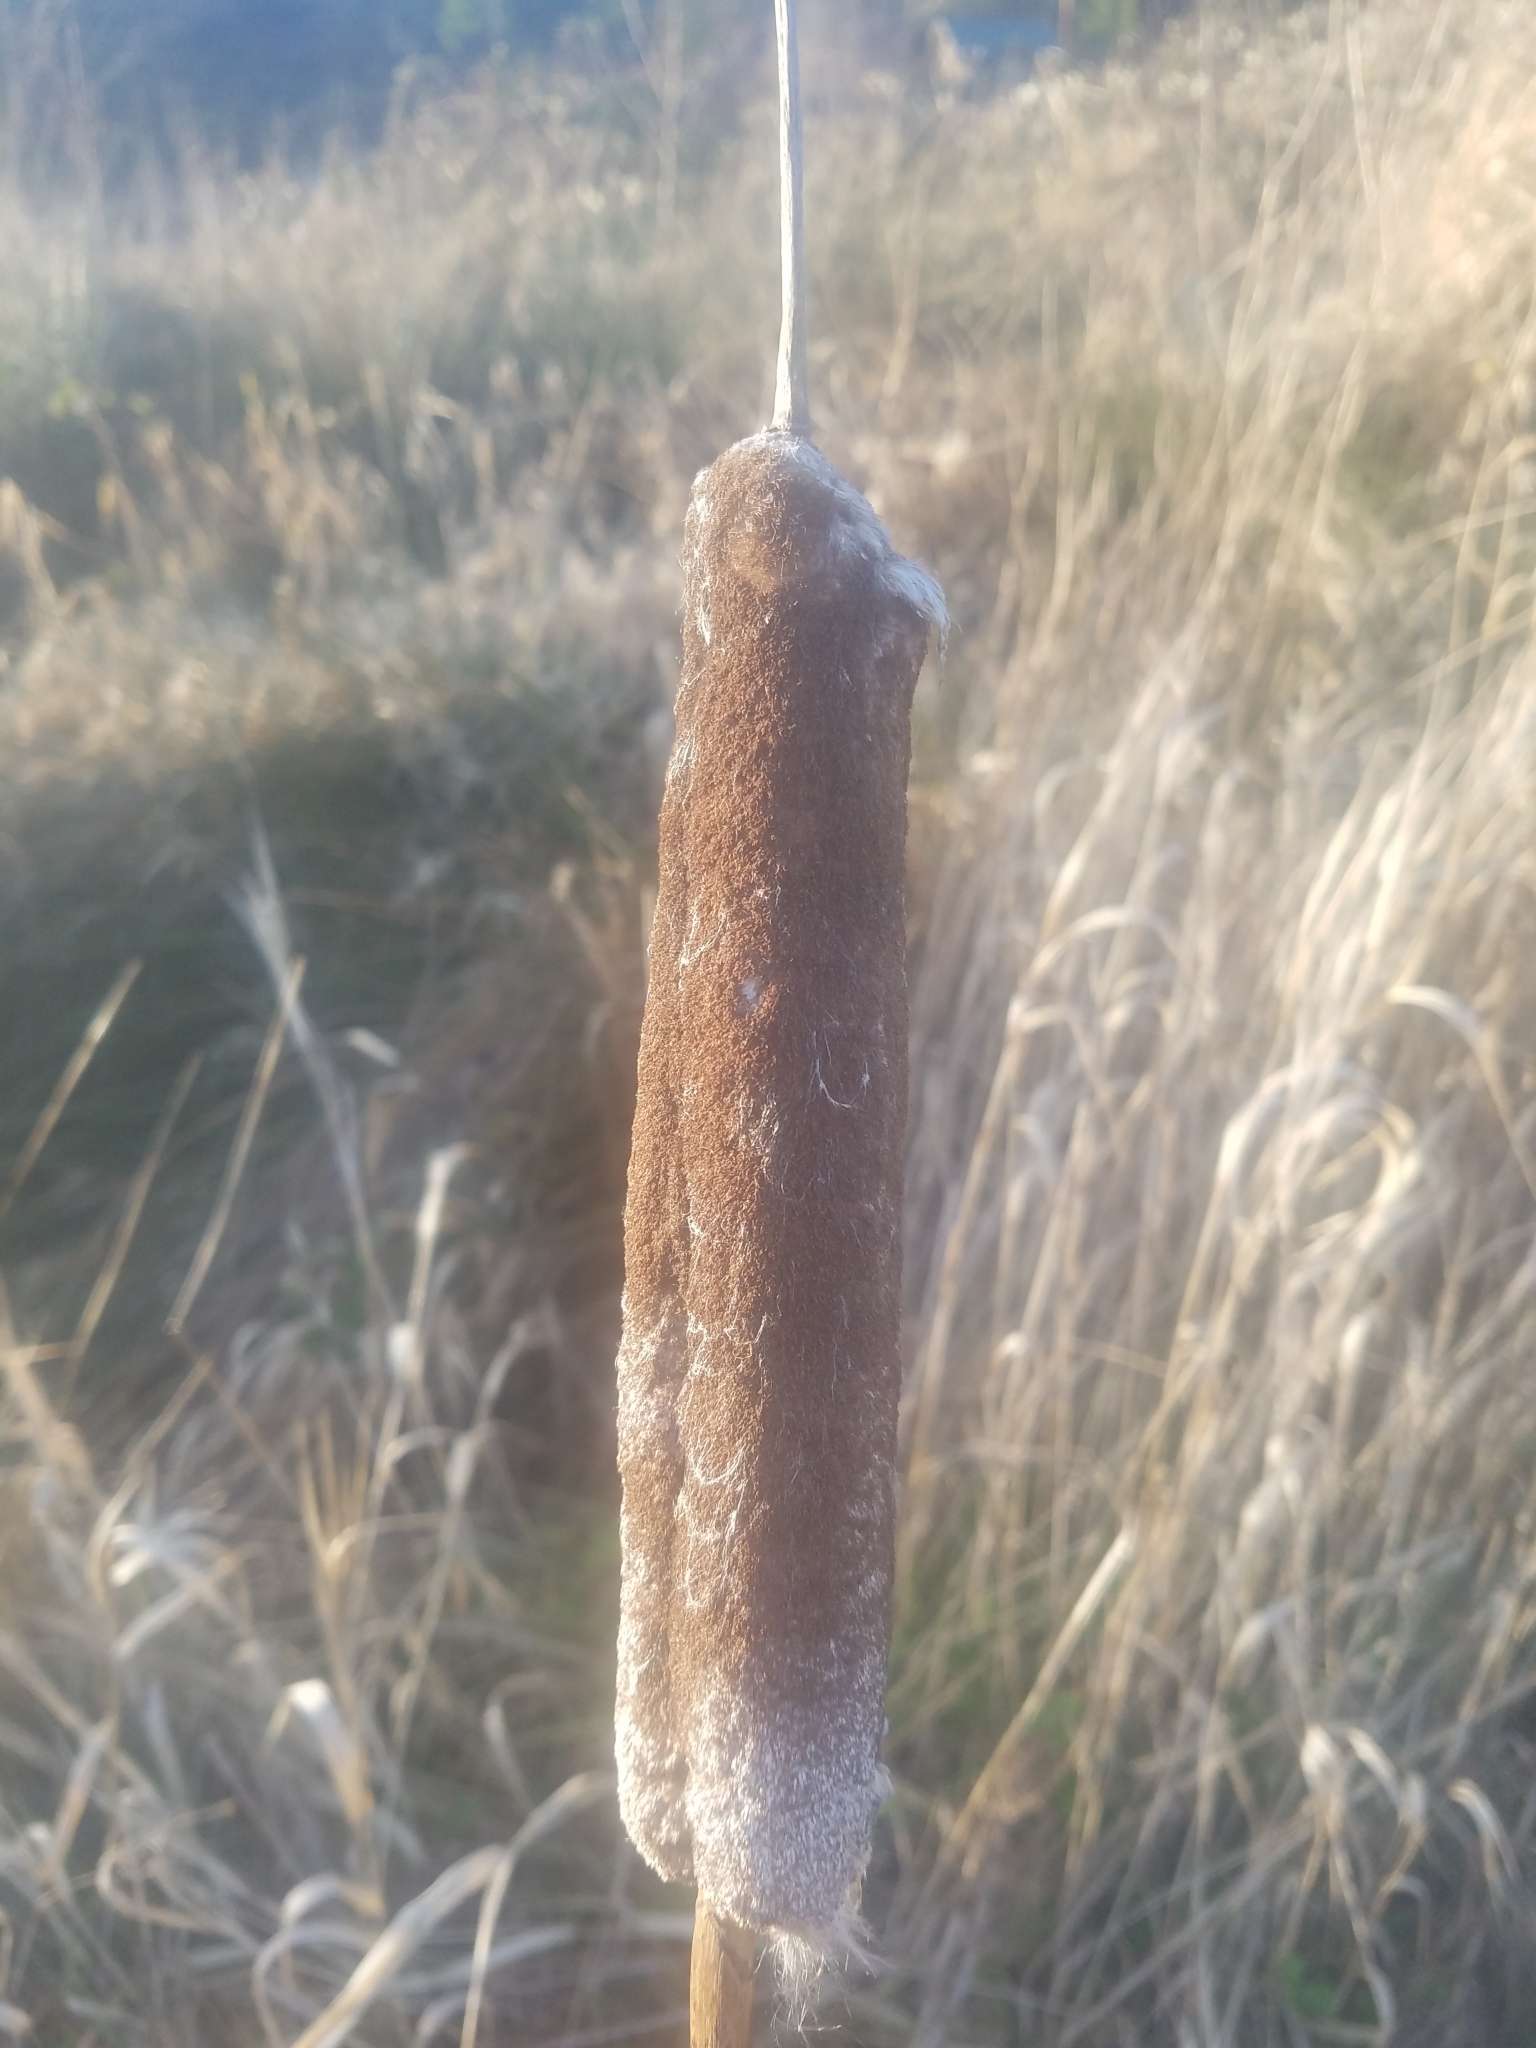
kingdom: Plantae
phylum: Tracheophyta
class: Liliopsida
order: Poales
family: Typhaceae
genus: Typha
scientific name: Typha latifolia
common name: Broadleaf cattail
